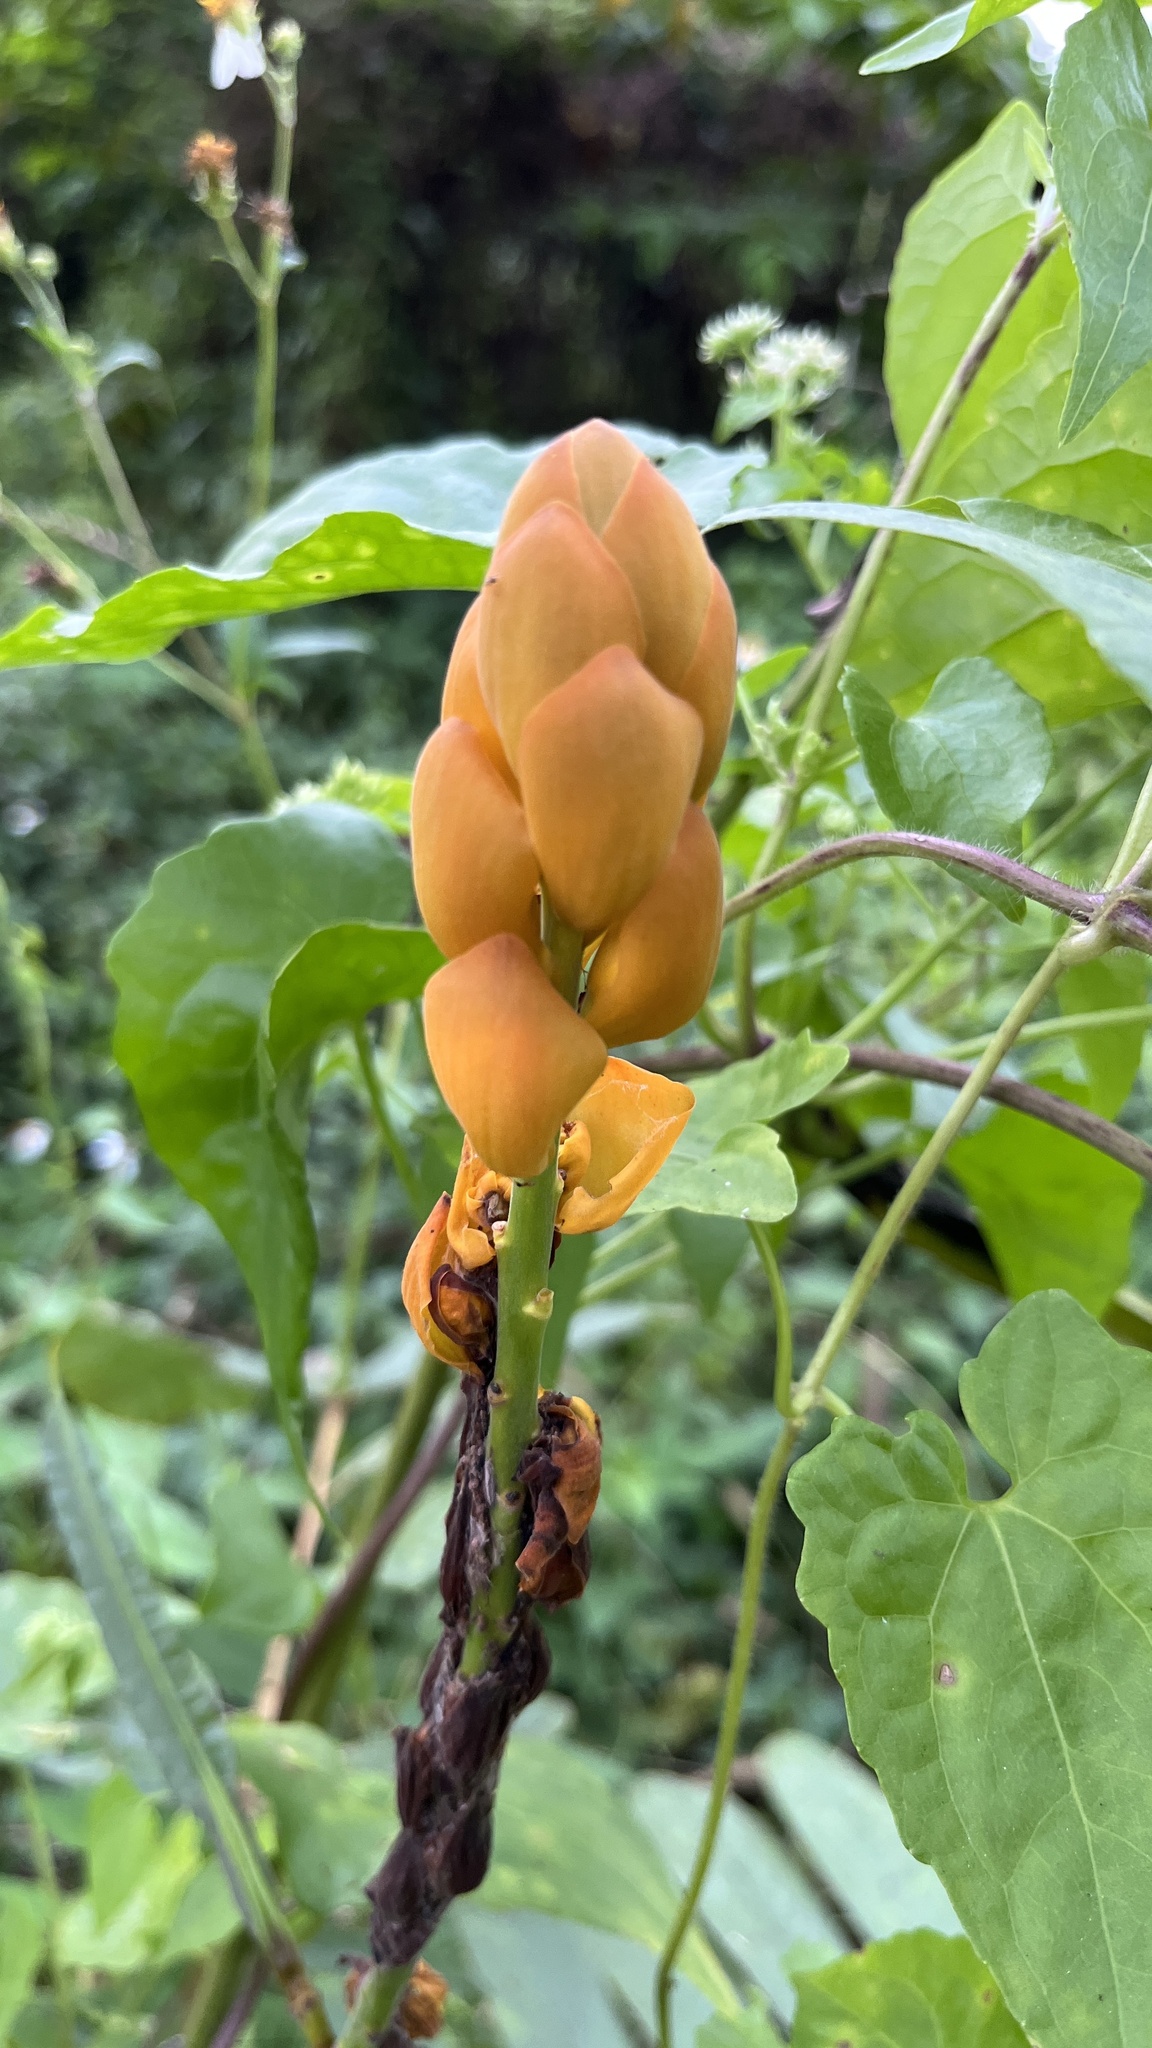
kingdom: Plantae
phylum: Tracheophyta
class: Magnoliopsida
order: Fabales
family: Fabaceae
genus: Senna
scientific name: Senna alata
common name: Emperor's candlesticks
